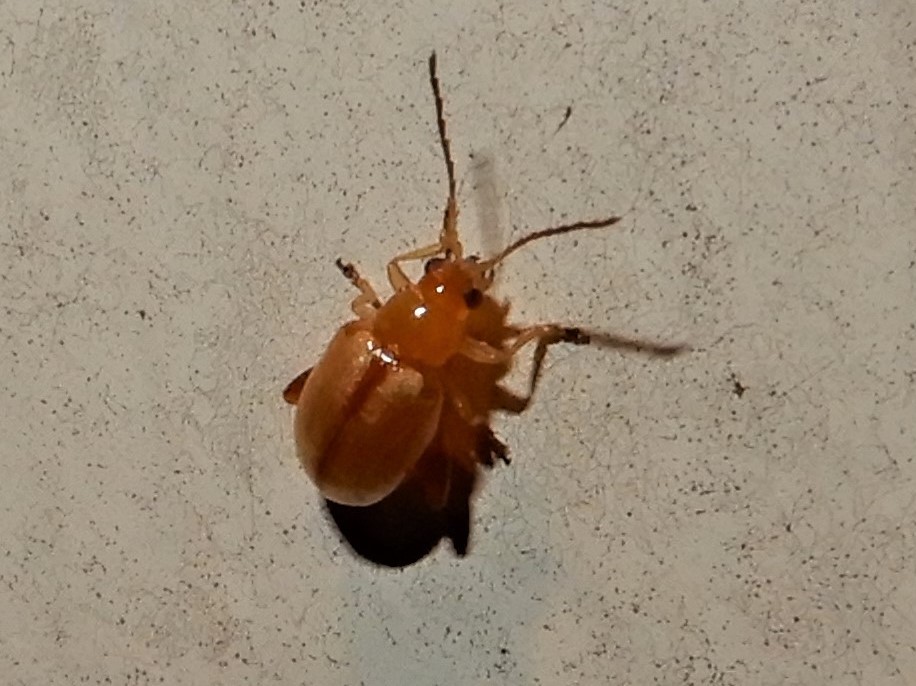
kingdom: Animalia
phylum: Arthropoda
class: Insecta
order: Coleoptera
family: Chrysomelidae
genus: Longitarsus
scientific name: Longitarsus jacobaeae
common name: Tansy ragwort flea beetle
